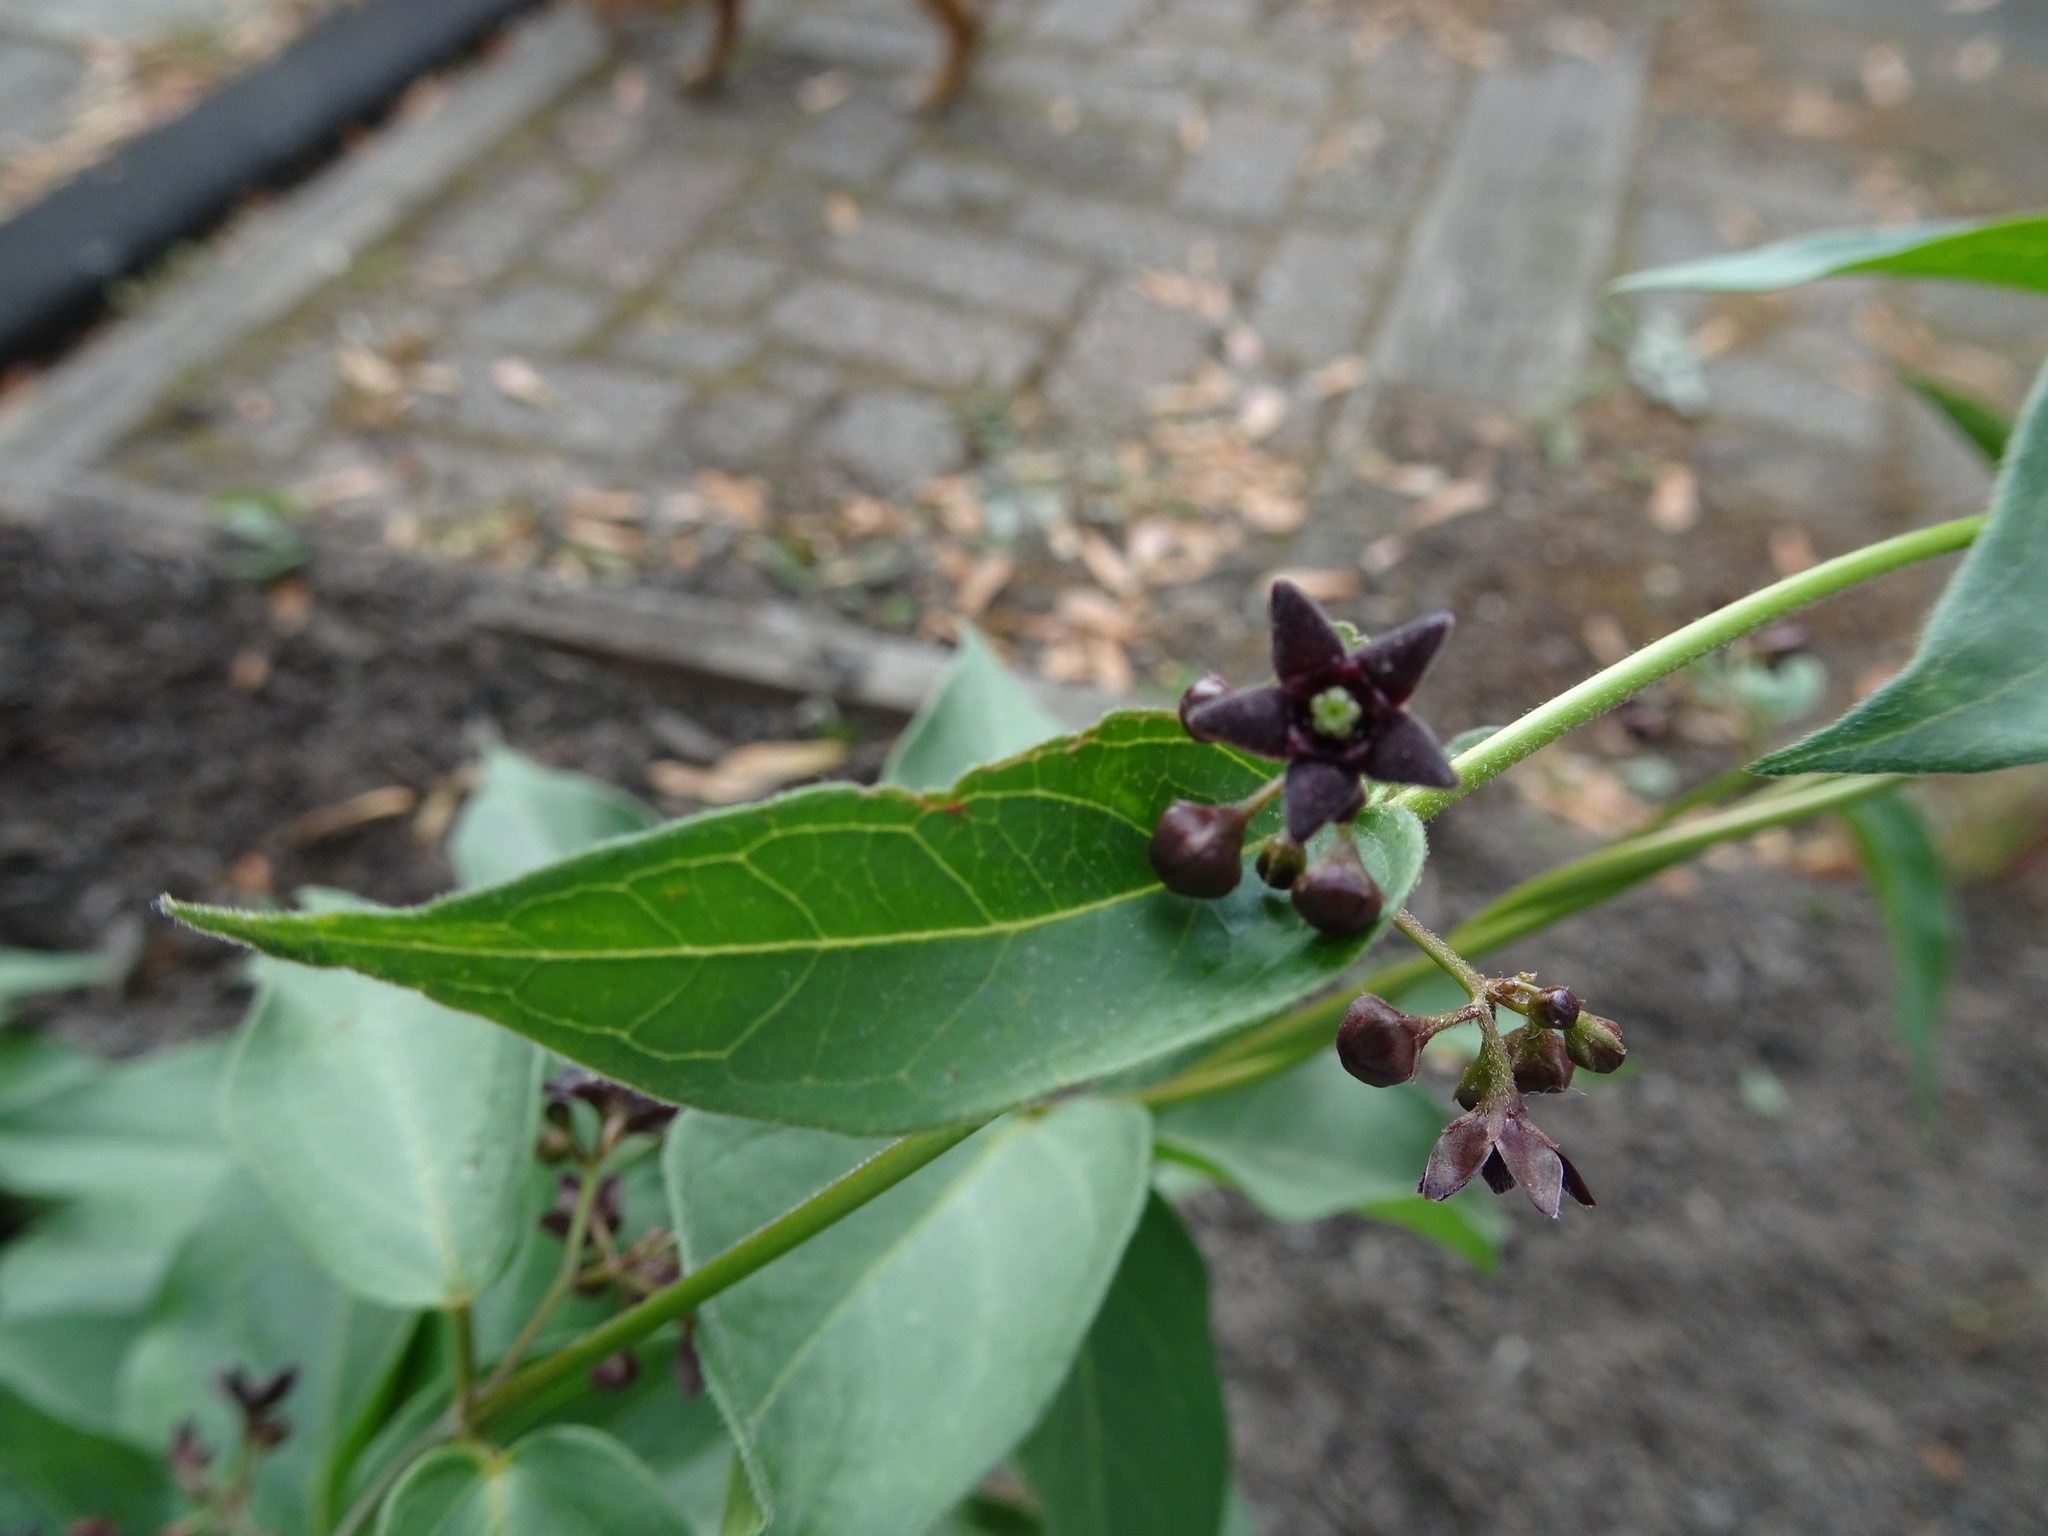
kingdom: Plantae
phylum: Tracheophyta
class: Magnoliopsida
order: Gentianales
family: Apocynaceae
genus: Vincetoxicum
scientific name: Vincetoxicum nigrum
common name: Black swallow-wort
